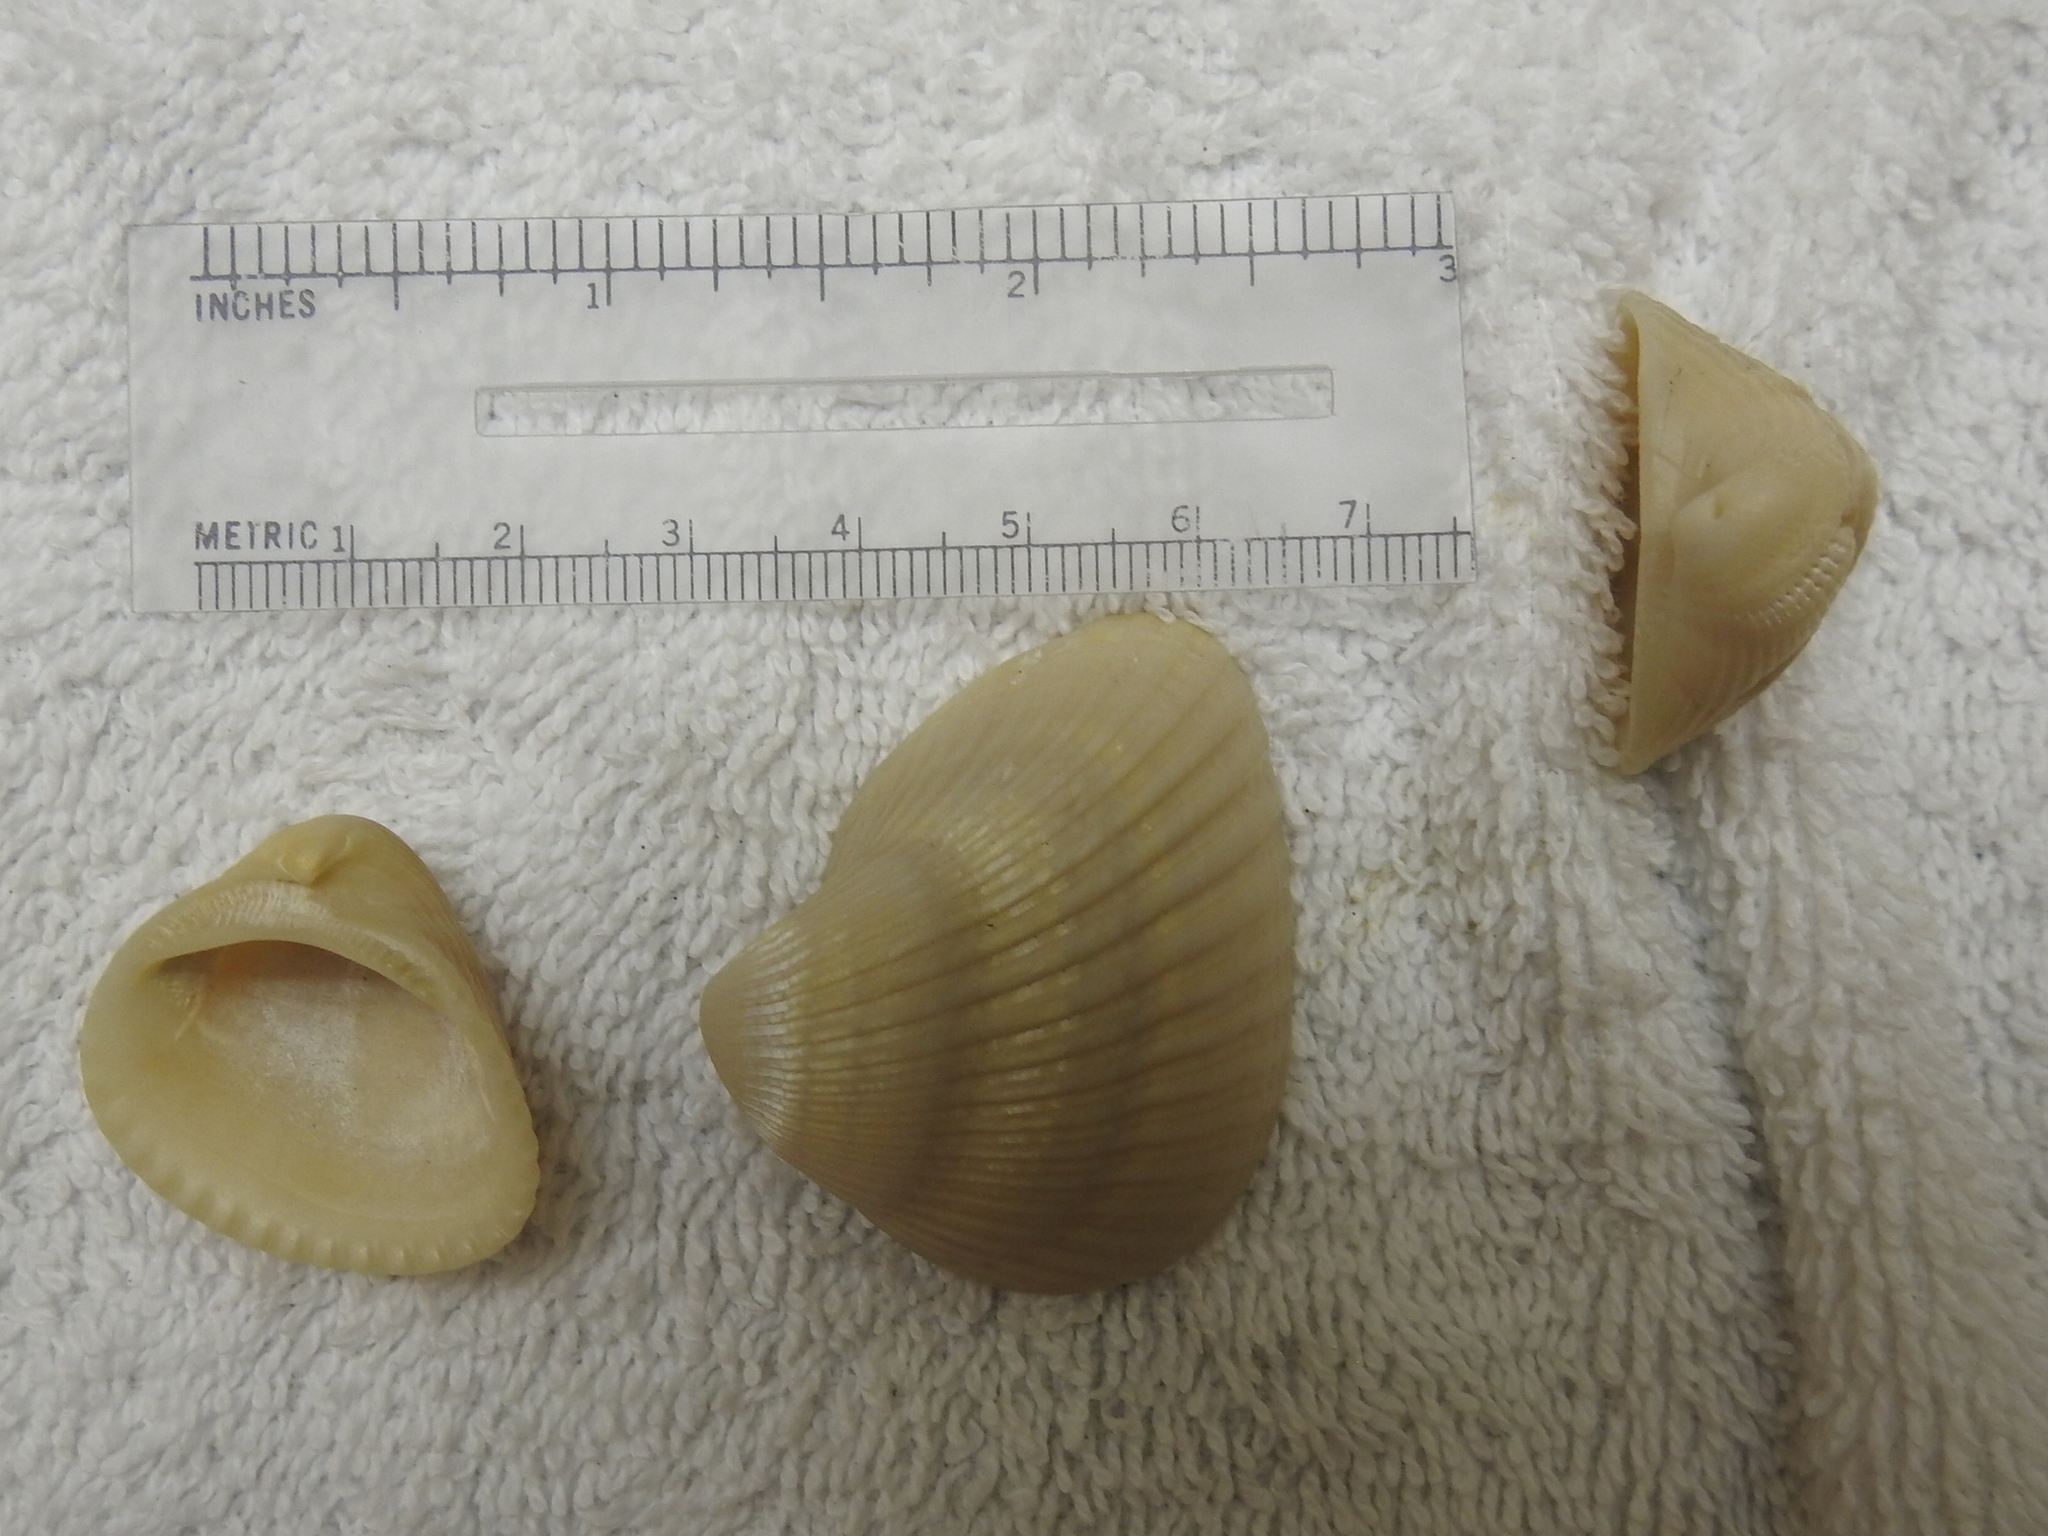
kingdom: Animalia
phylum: Mollusca
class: Bivalvia
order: Arcida
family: Noetiidae
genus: Noetia
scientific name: Noetia ponderosa
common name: Ponderous ark
